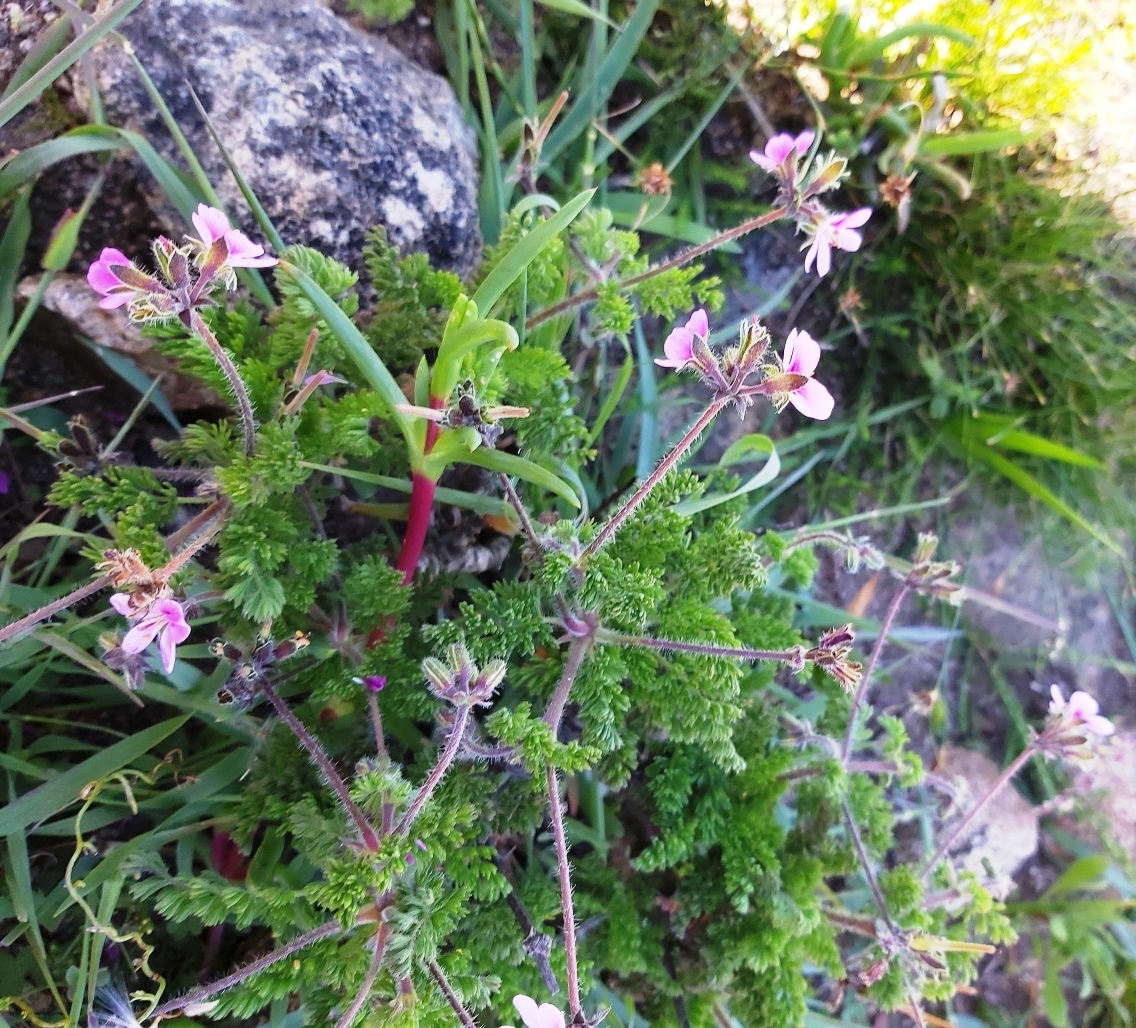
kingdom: Plantae
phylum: Tracheophyta
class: Magnoliopsida
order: Geraniales
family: Geraniaceae
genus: Pelargonium
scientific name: Pelargonium hirtum
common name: Fine-leaf pelargonium
